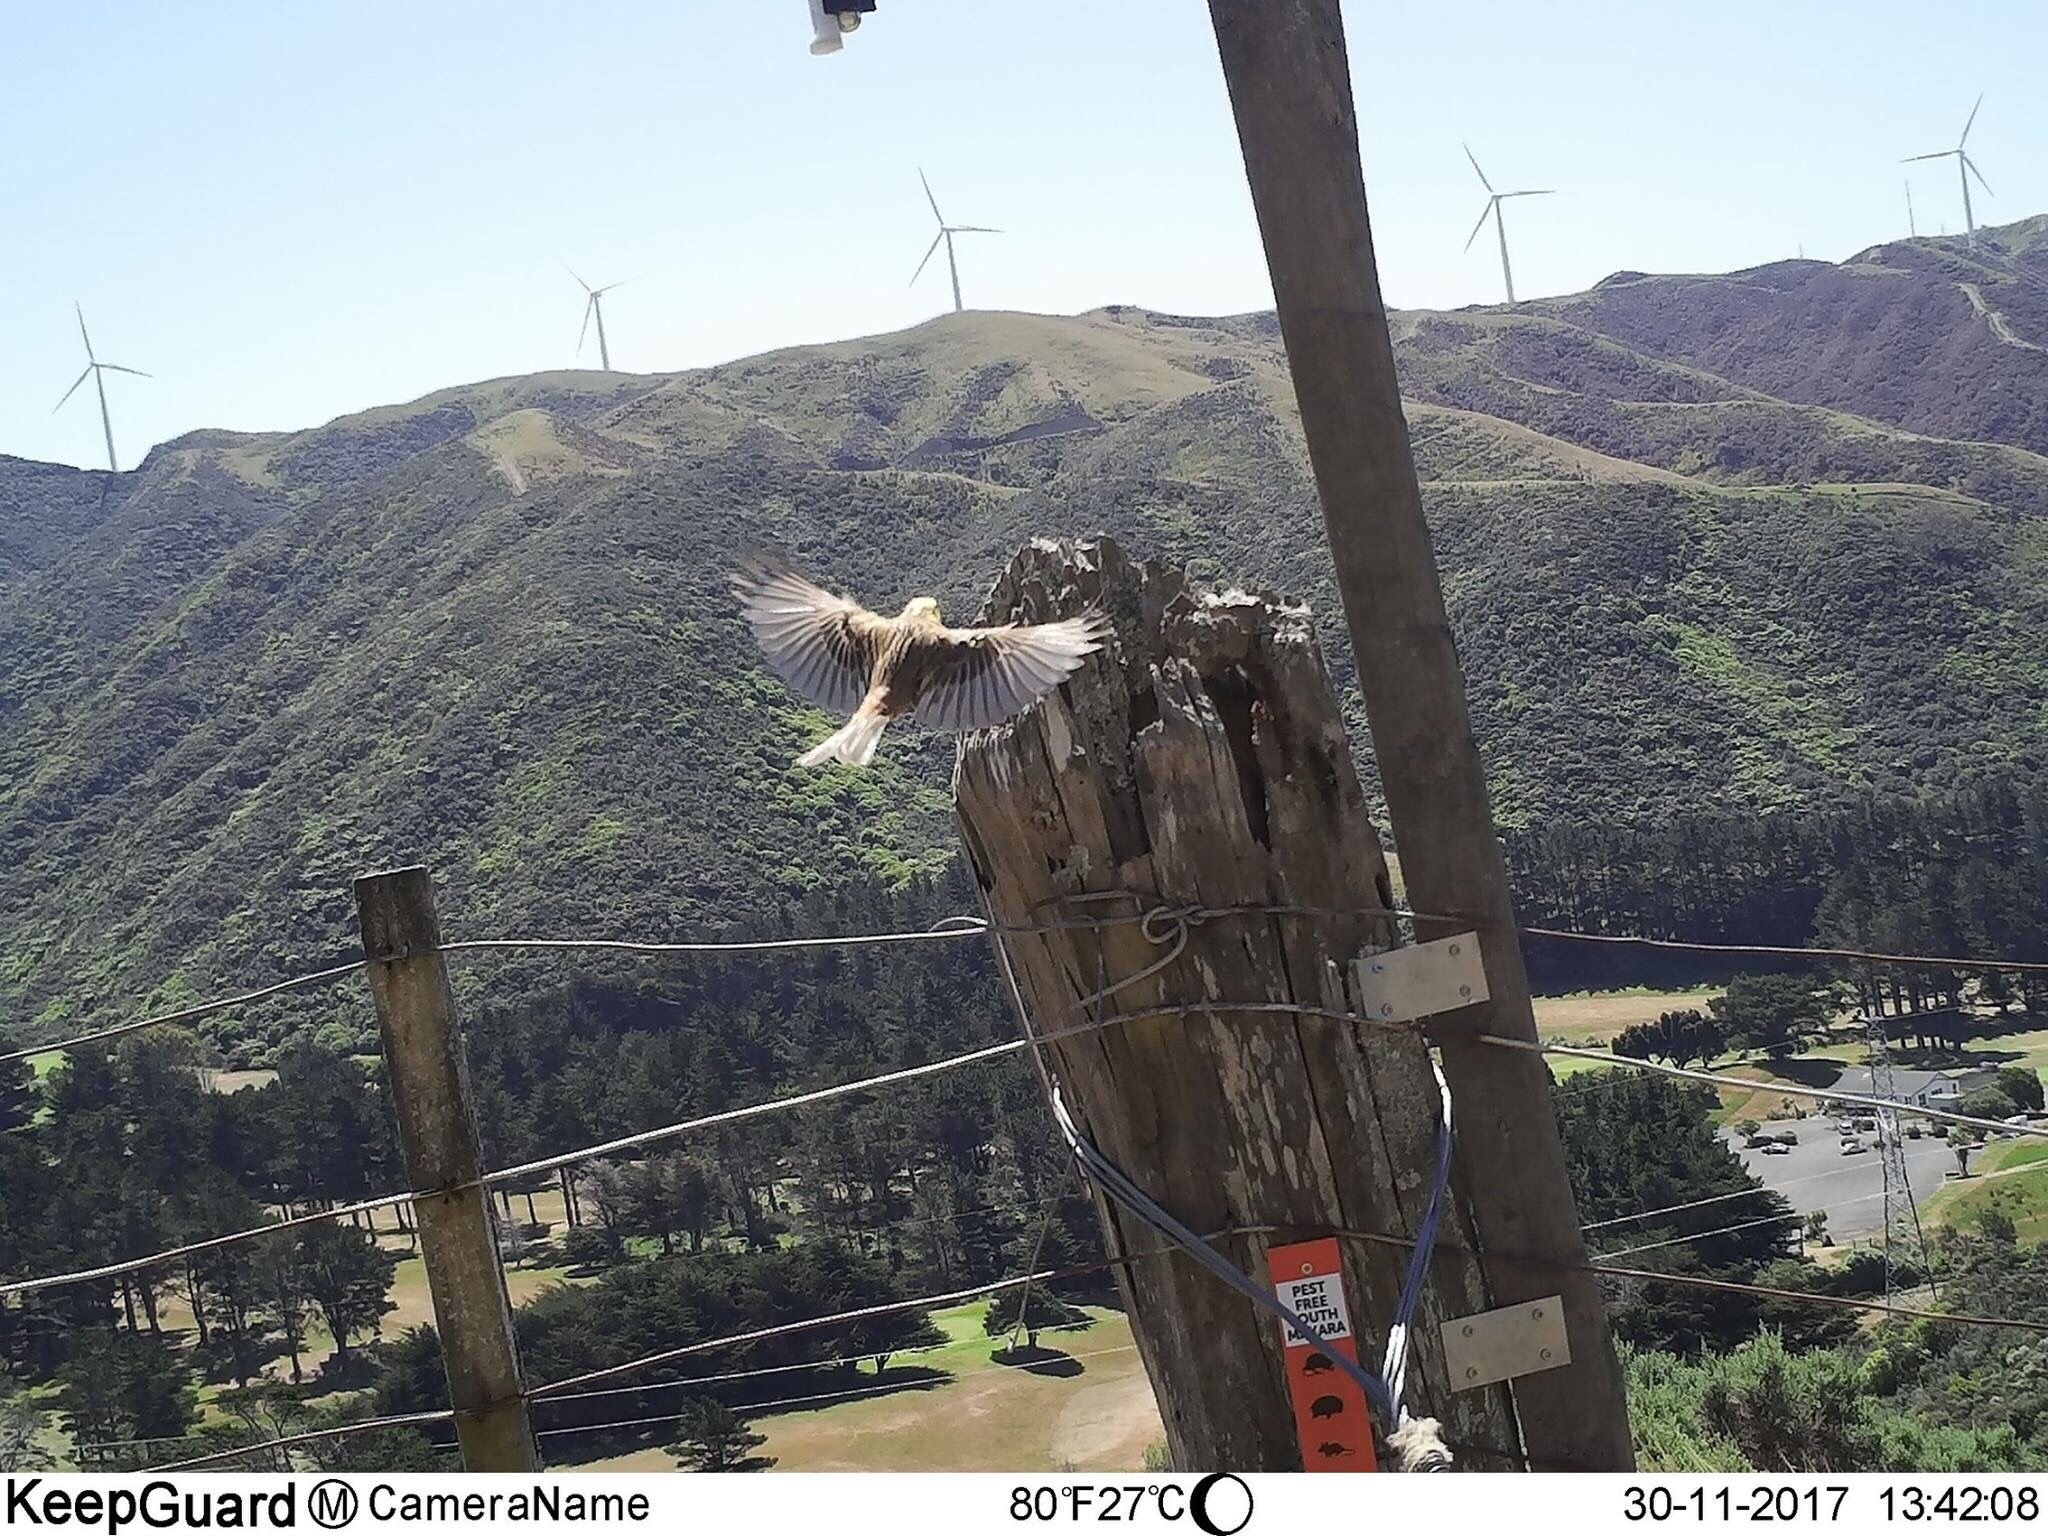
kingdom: Animalia
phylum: Chordata
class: Aves
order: Passeriformes
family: Emberizidae
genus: Emberiza
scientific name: Emberiza citrinella
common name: Yellowhammer
